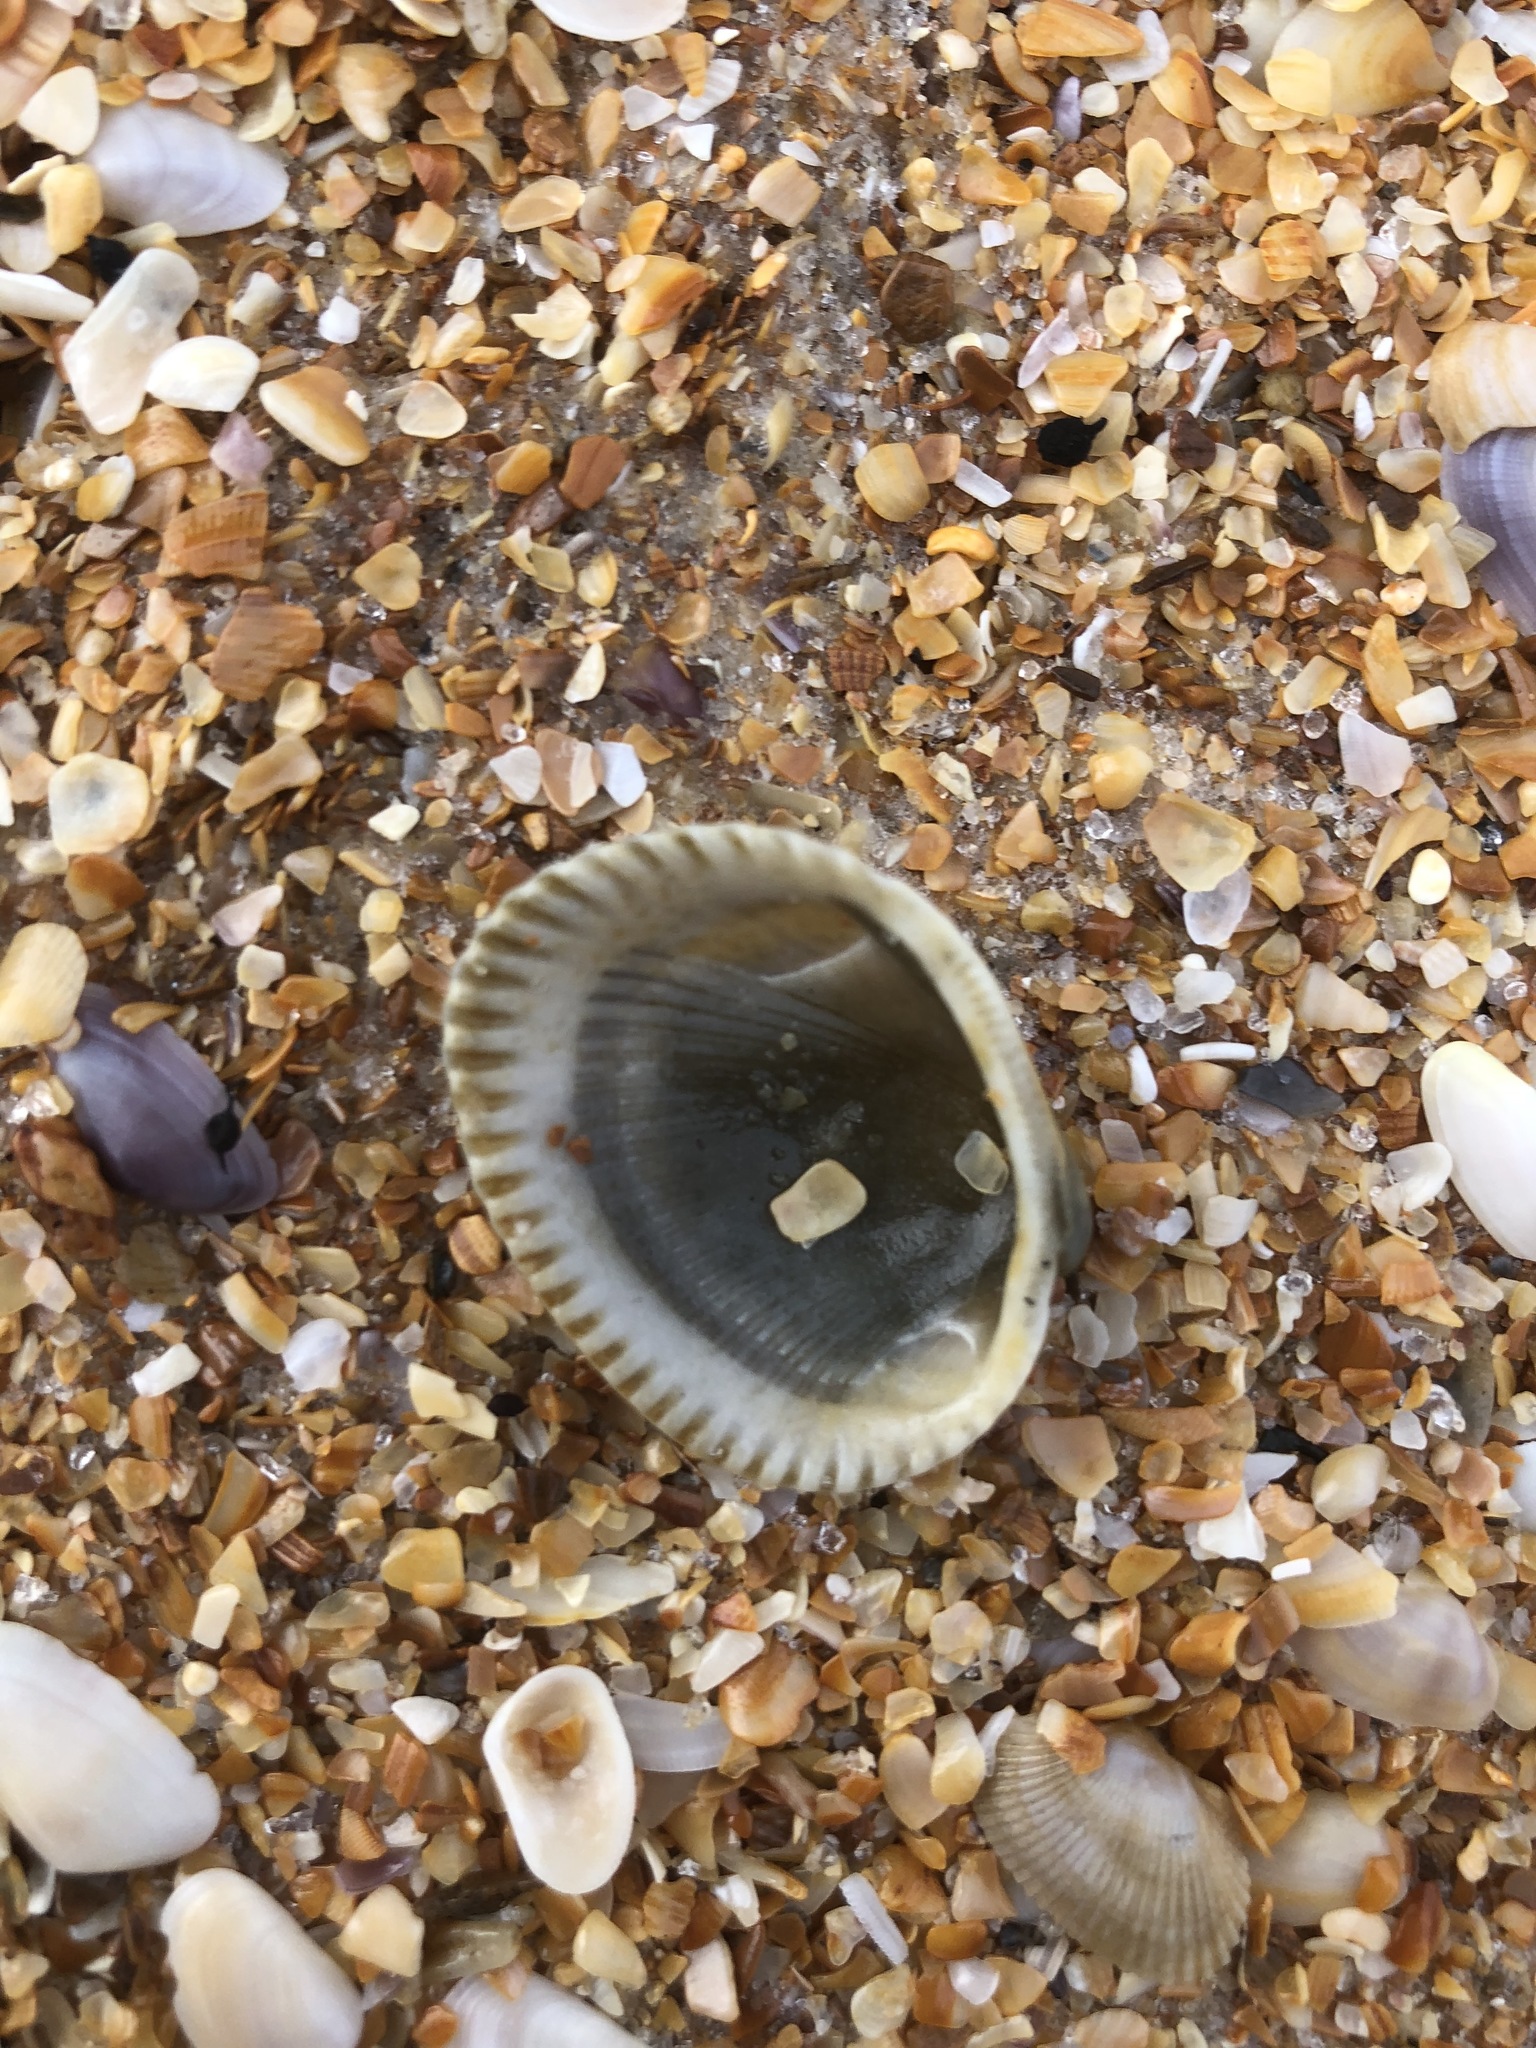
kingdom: Animalia
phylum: Mollusca
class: Bivalvia
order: Arcida
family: Arcidae
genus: Lunarca
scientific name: Lunarca ovalis
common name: Blood ark
